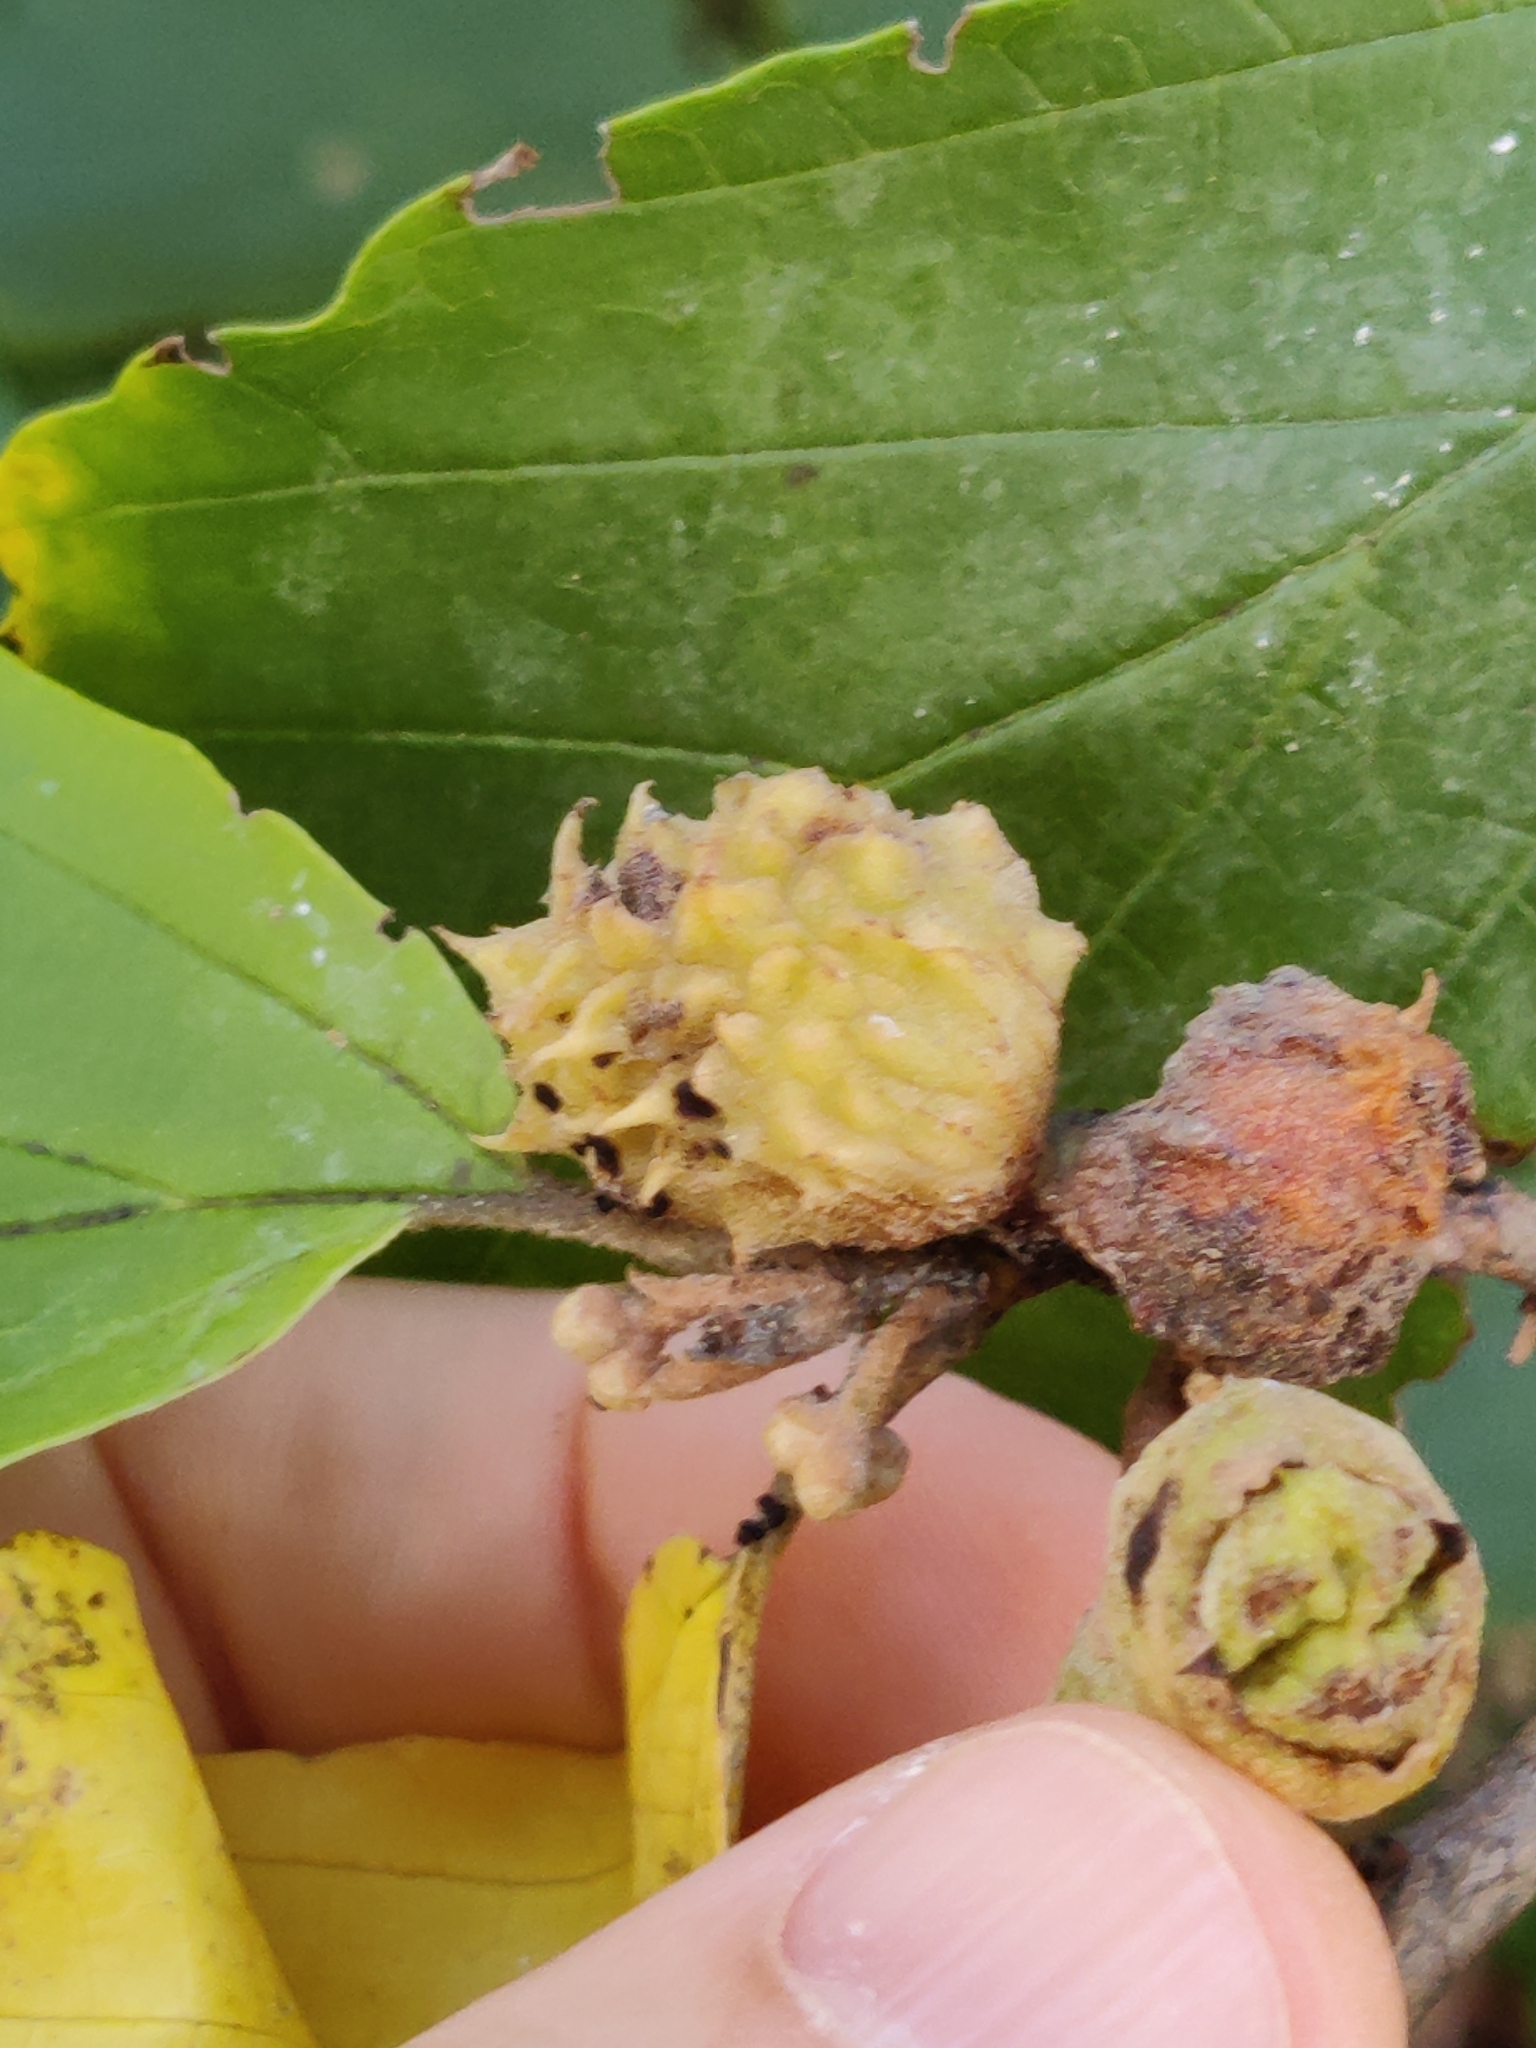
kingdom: Animalia
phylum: Arthropoda
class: Insecta
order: Hemiptera
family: Aphididae
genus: Hamamelistes
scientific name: Hamamelistes spinosus
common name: Witch hazel gall aphid
